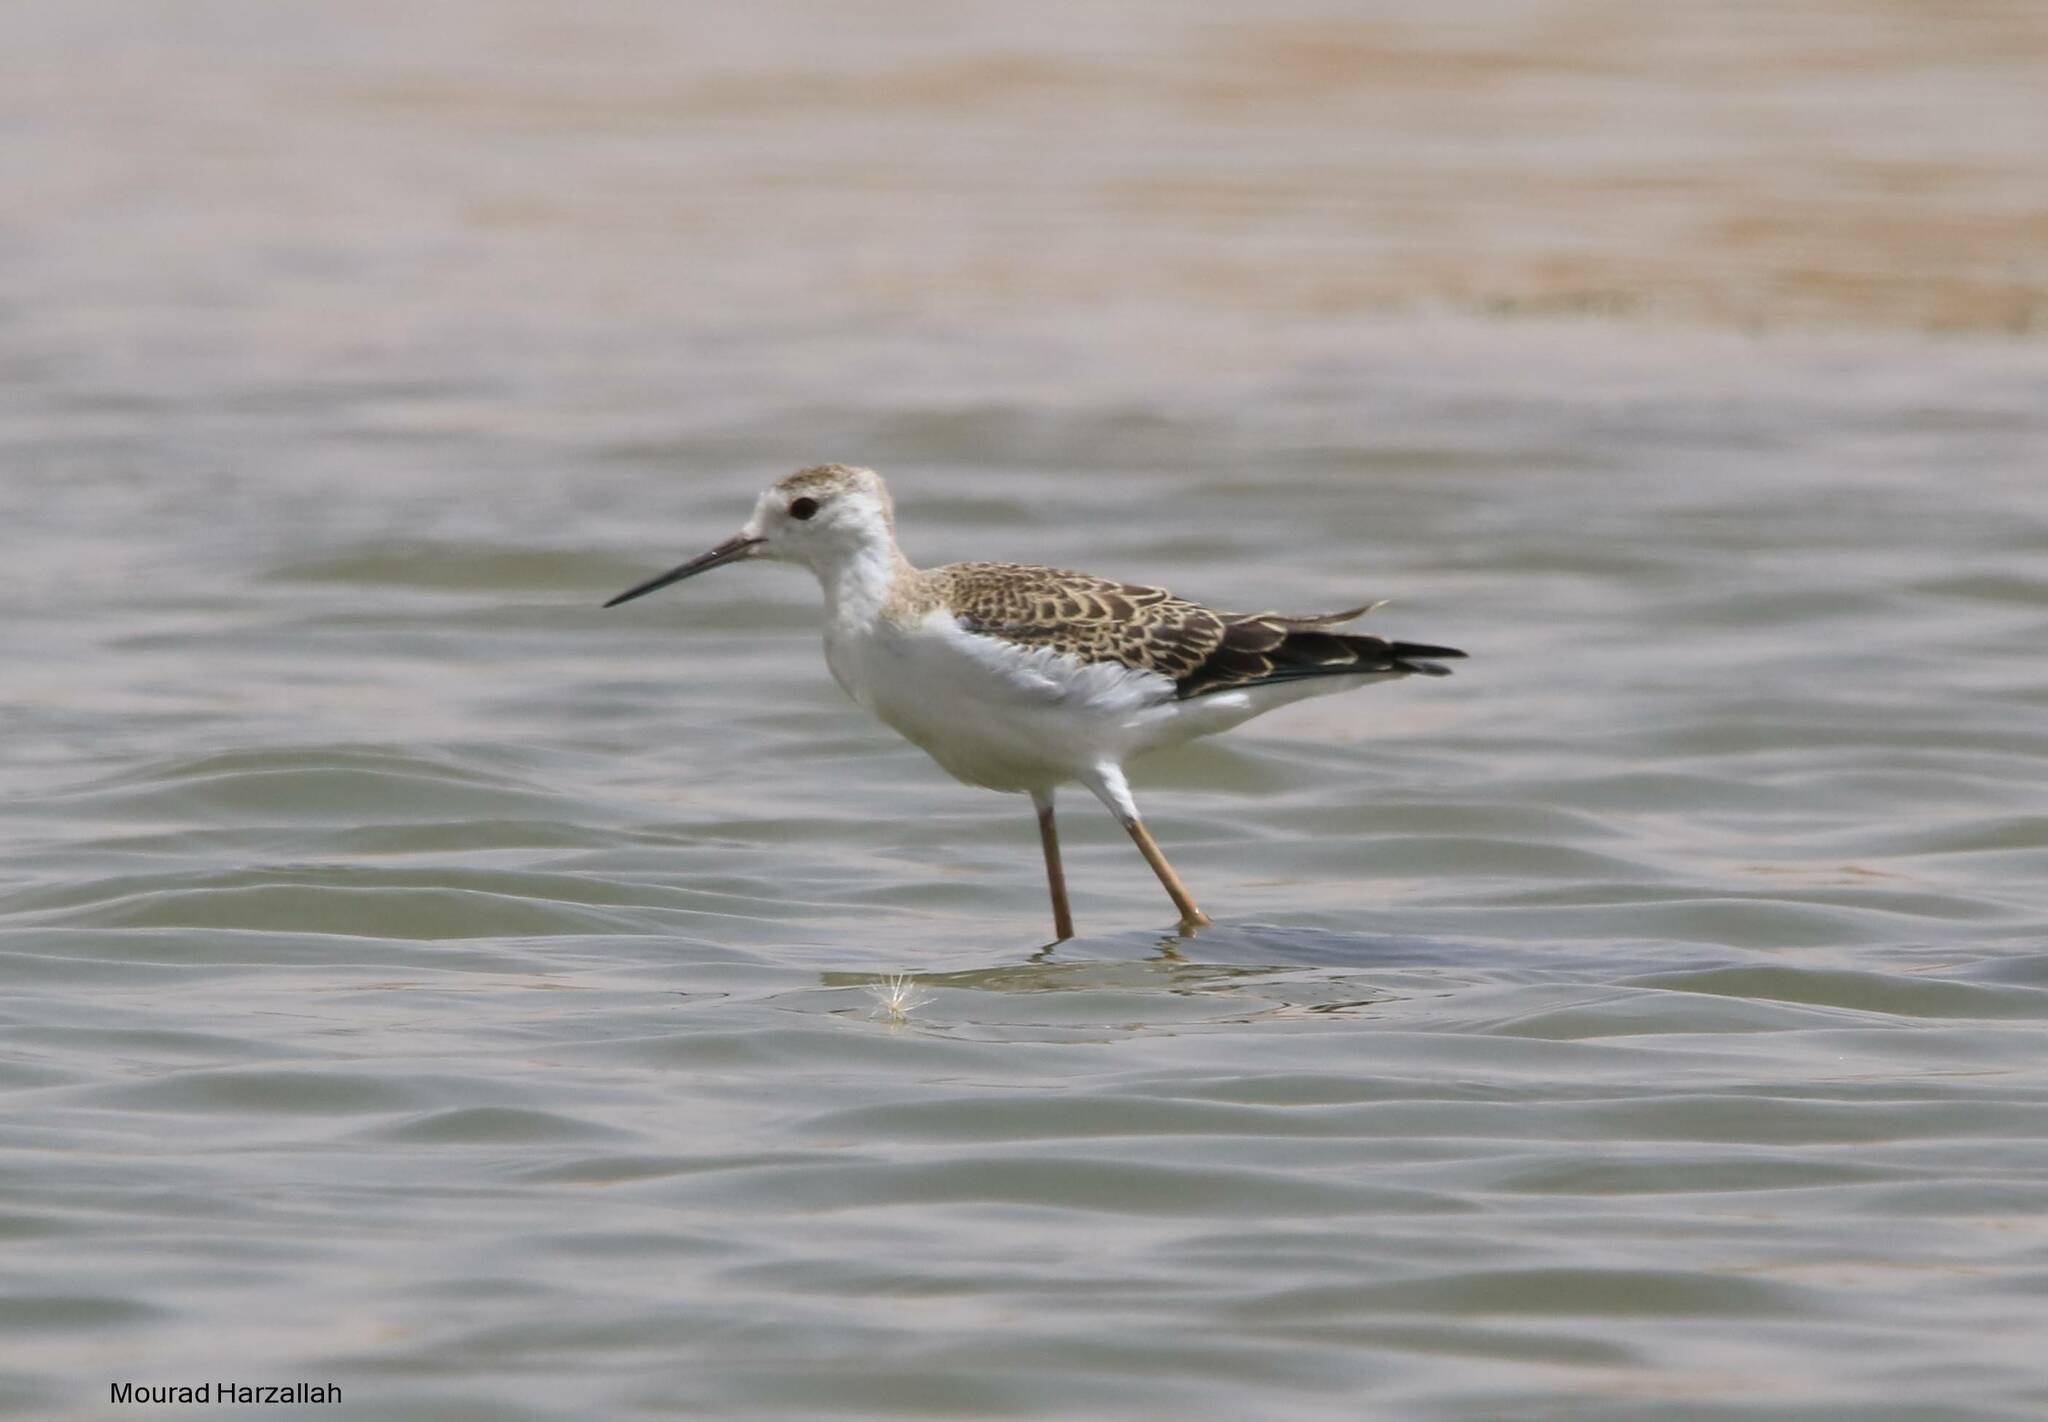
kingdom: Animalia
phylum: Chordata
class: Aves
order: Charadriiformes
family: Recurvirostridae
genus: Himantopus
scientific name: Himantopus himantopus
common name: Black-winged stilt
